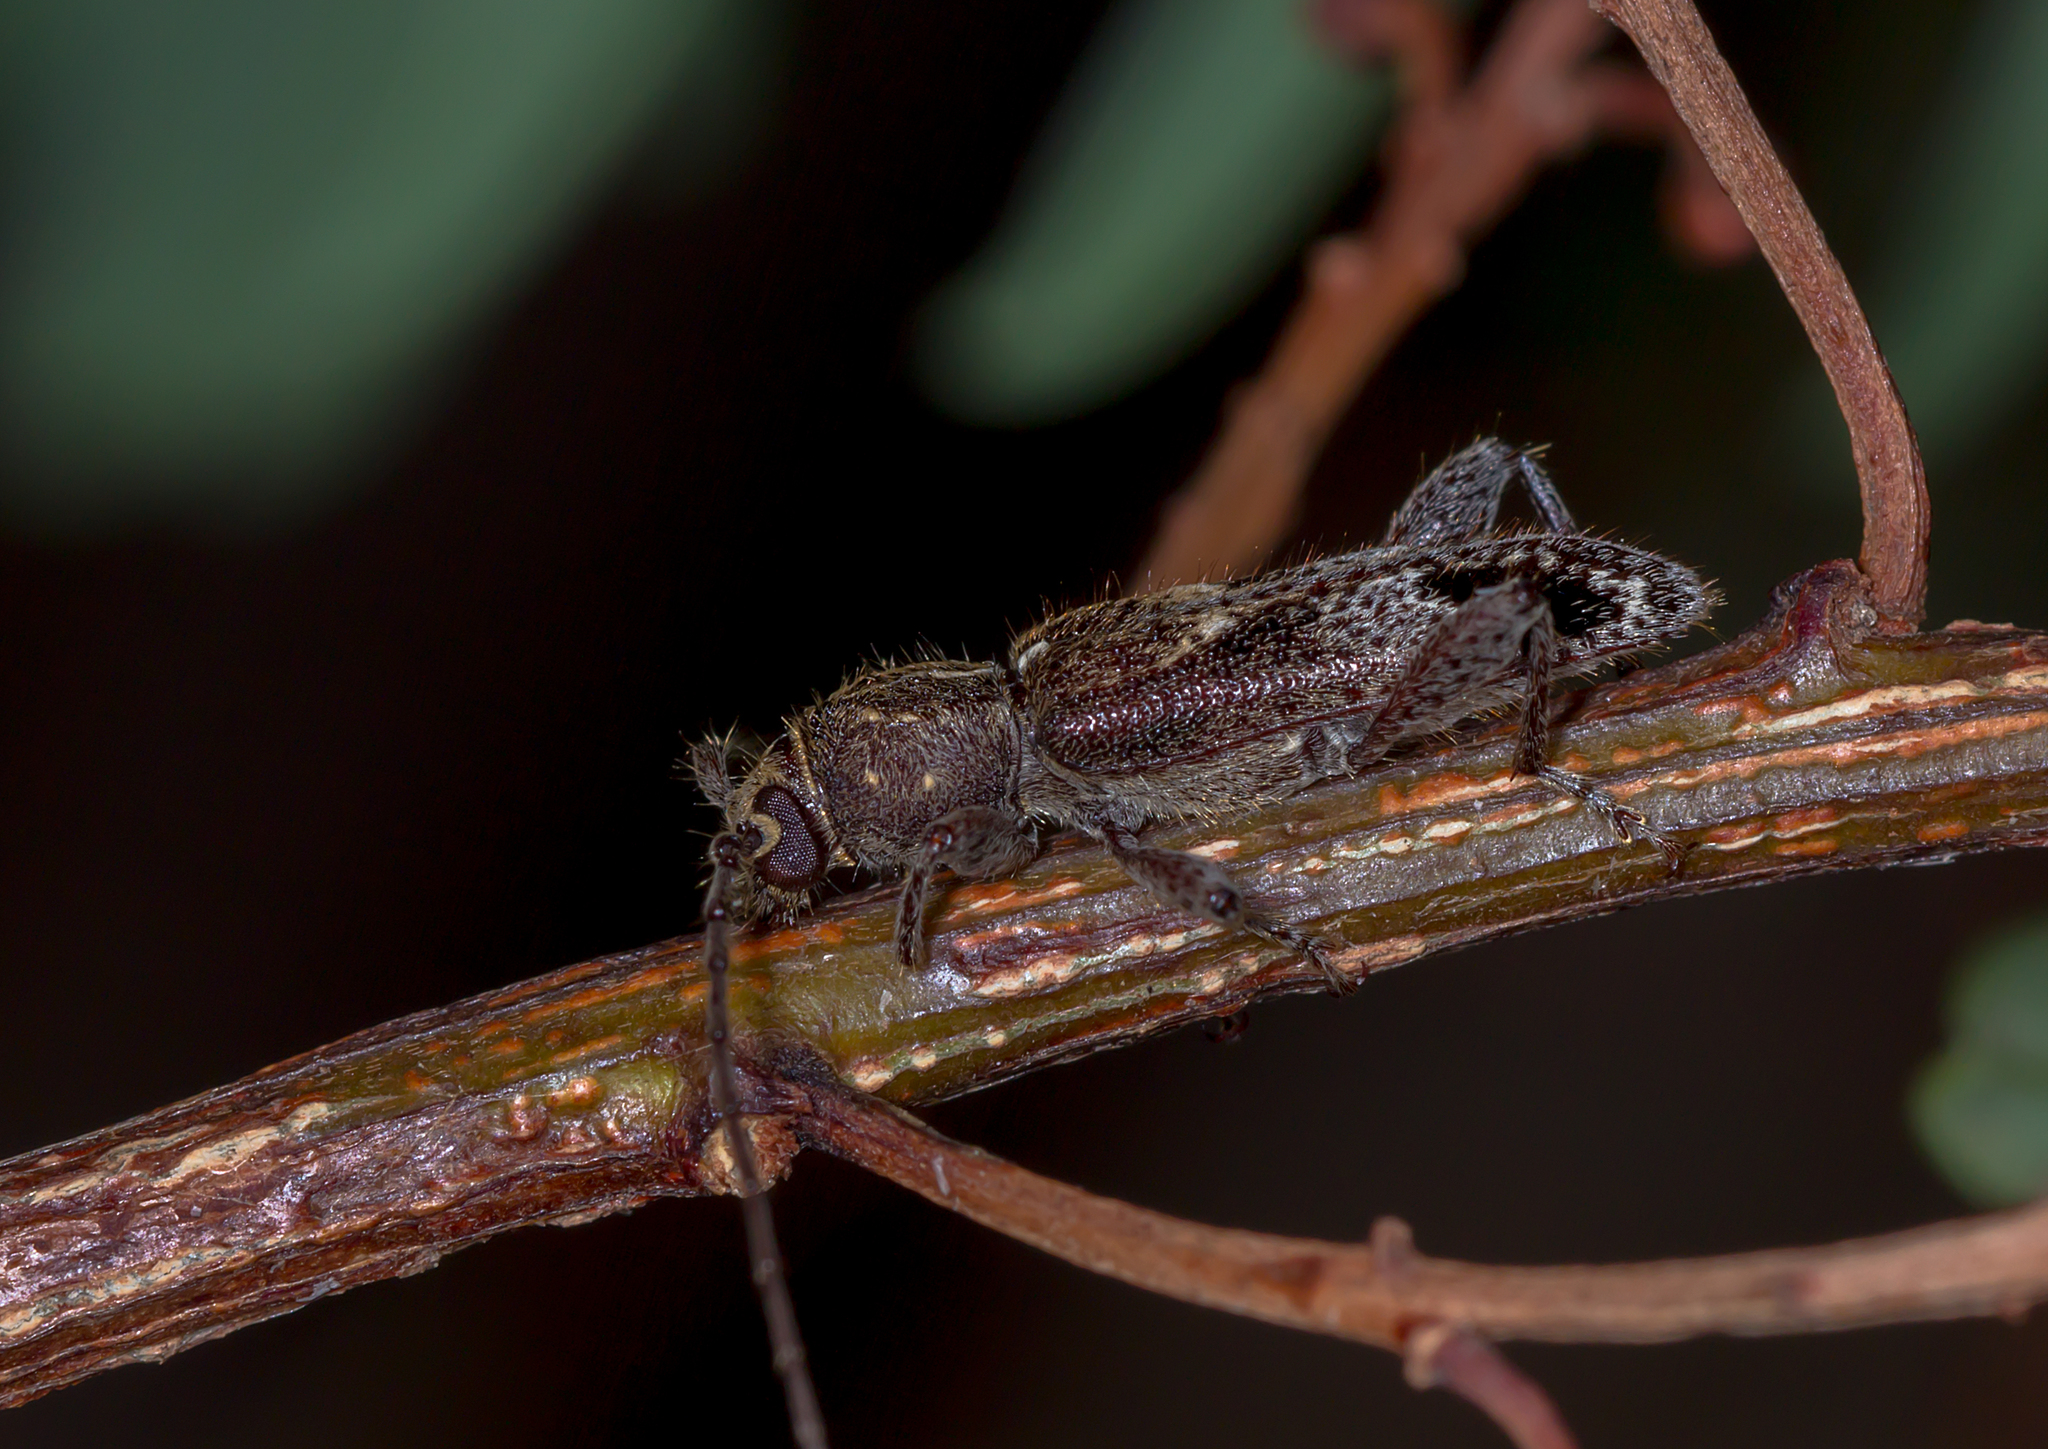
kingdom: Animalia
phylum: Arthropoda
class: Insecta
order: Coleoptera
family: Cerambycidae
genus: Phacodes
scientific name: Phacodes personatus
